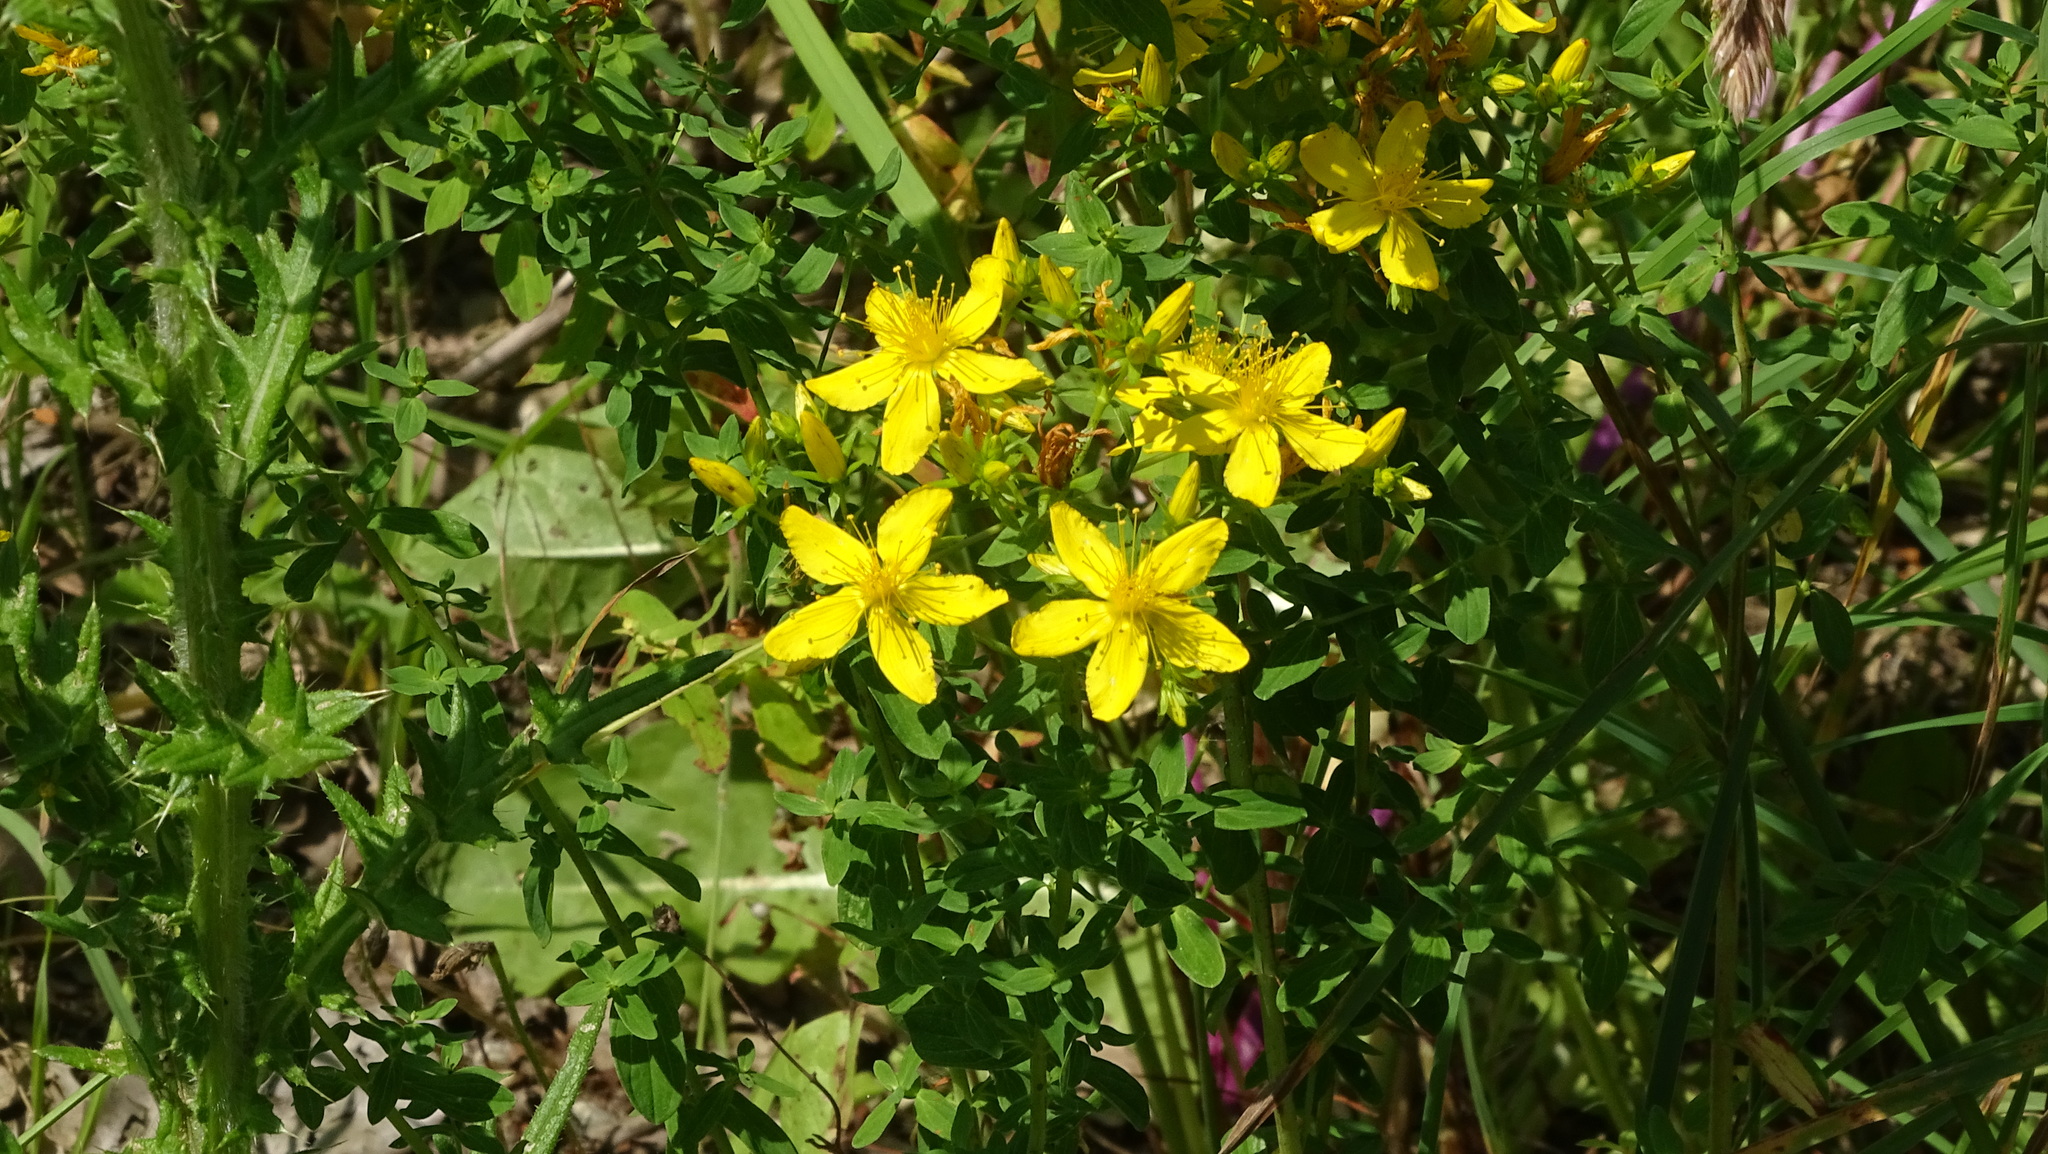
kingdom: Plantae
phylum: Tracheophyta
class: Magnoliopsida
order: Malpighiales
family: Hypericaceae
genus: Hypericum
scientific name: Hypericum perforatum
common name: Common st. johnswort
